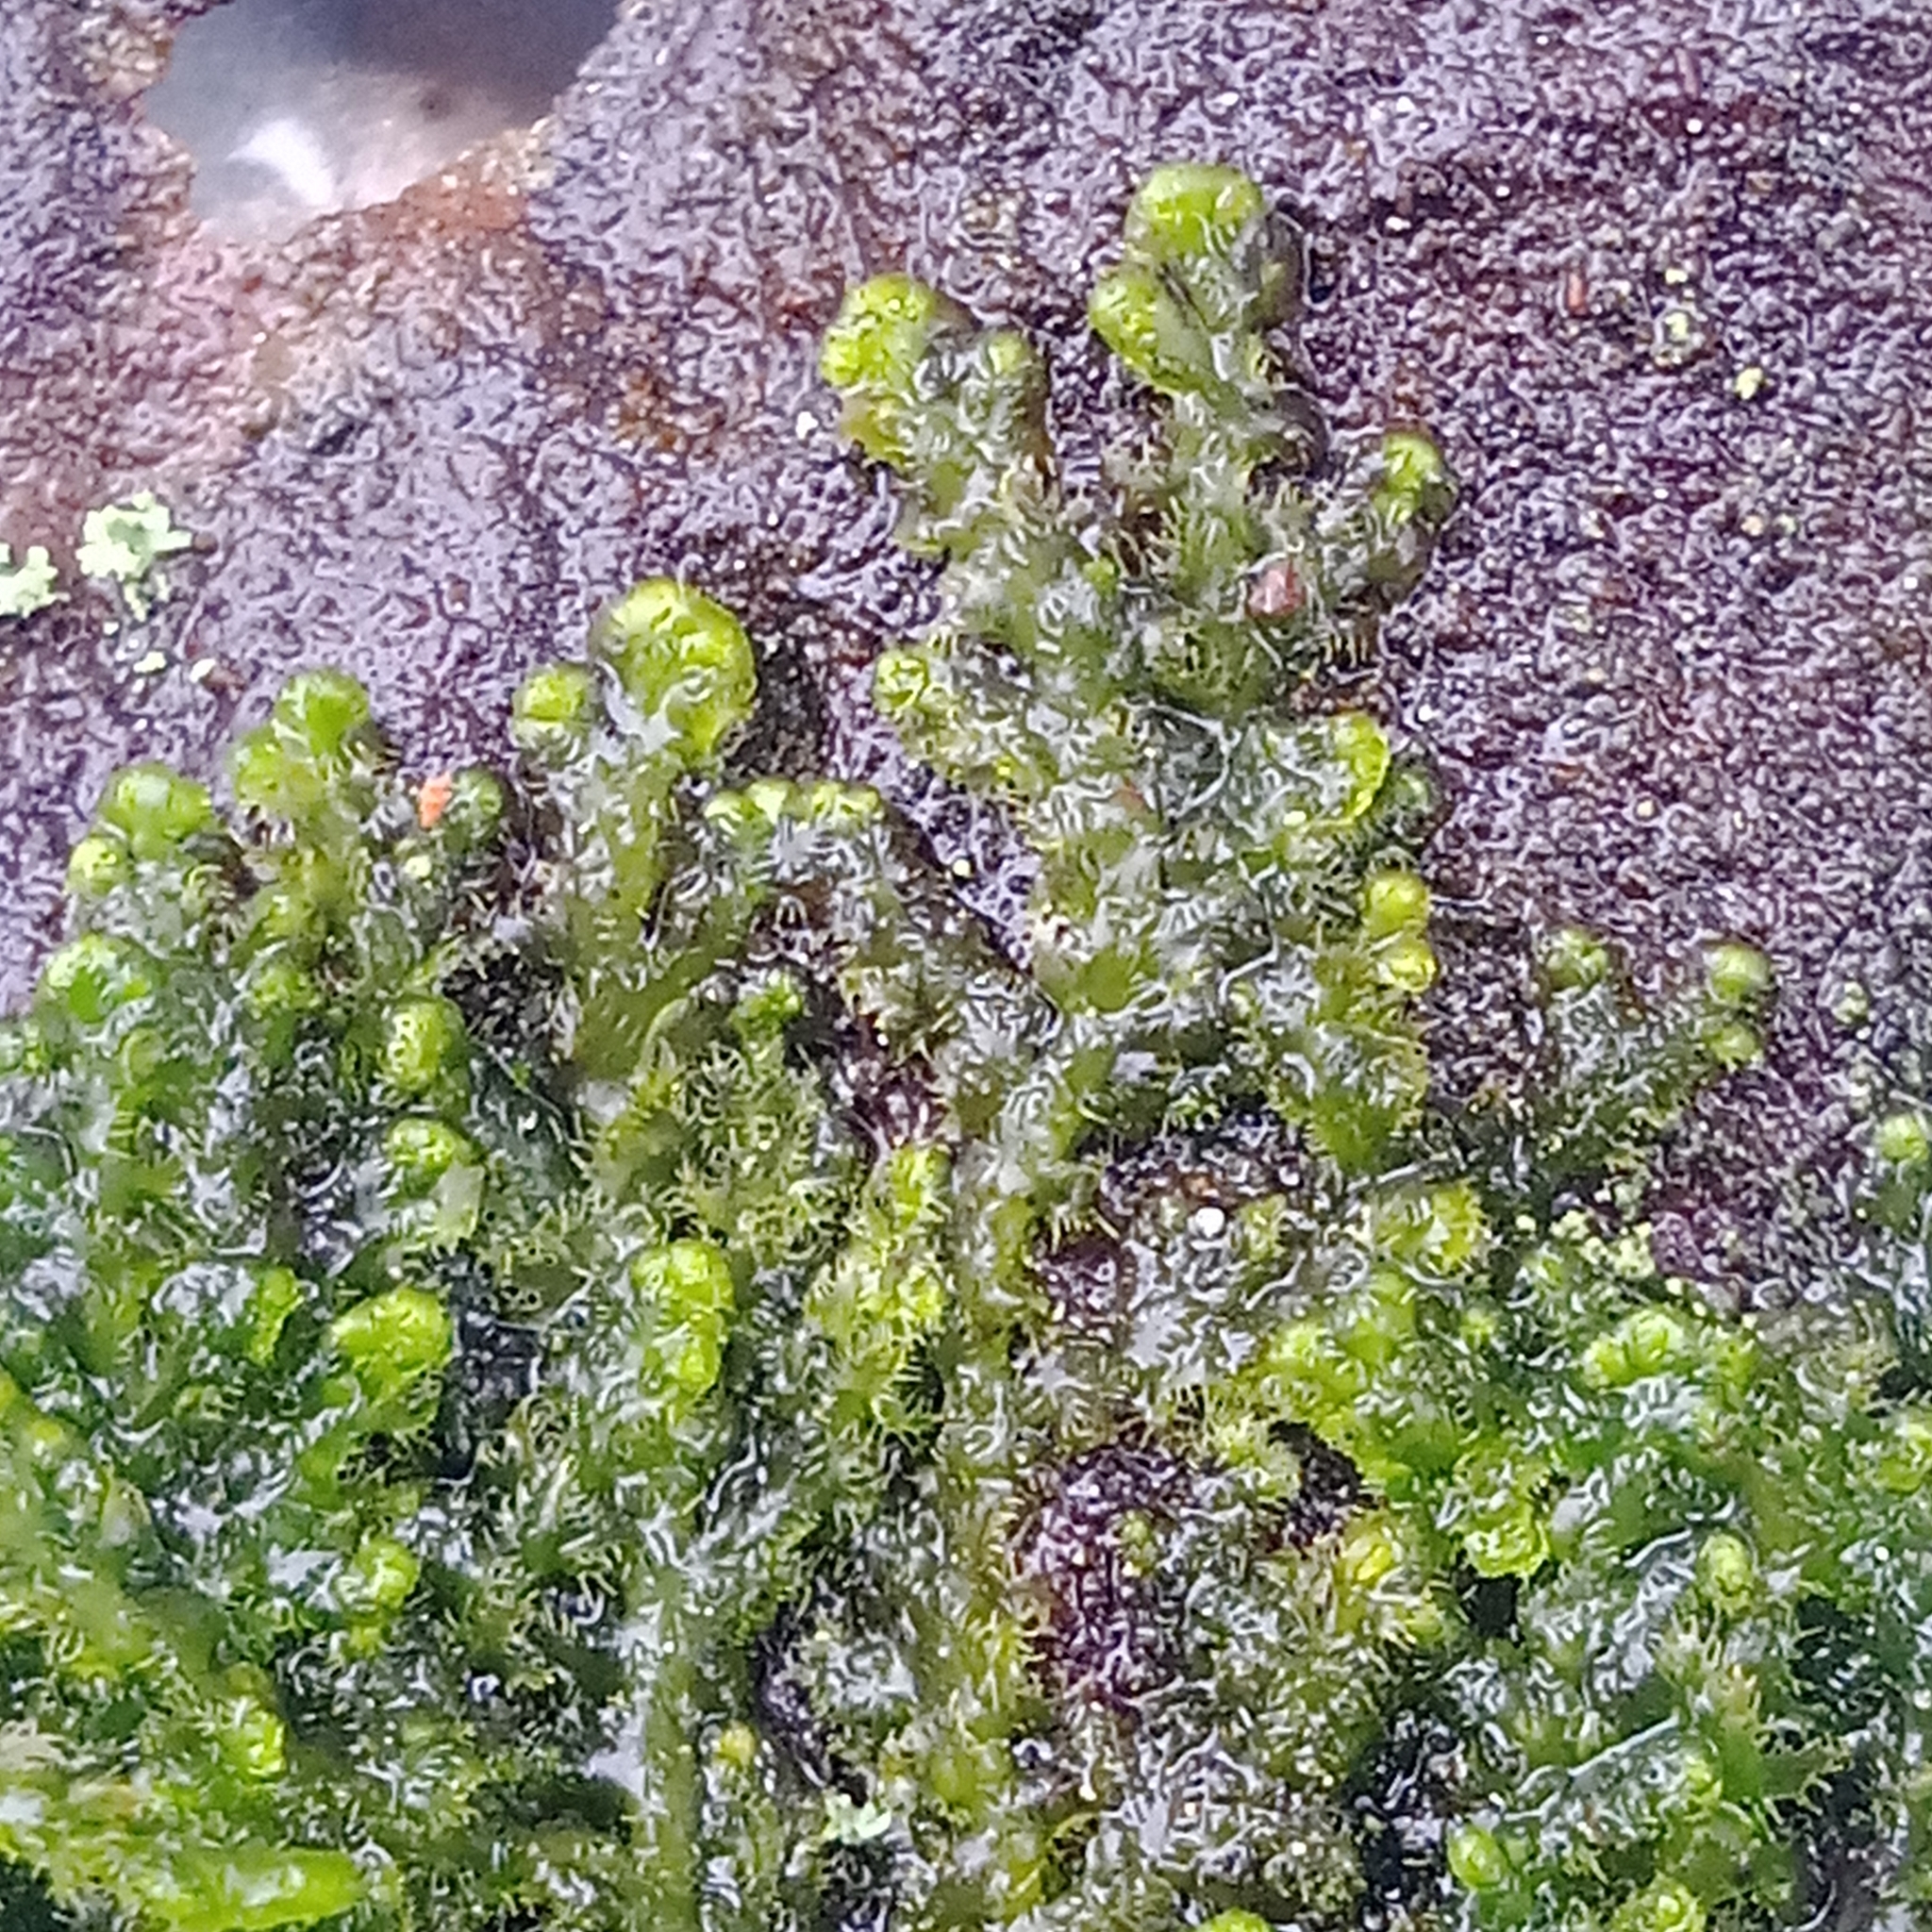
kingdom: Plantae
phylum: Marchantiophyta
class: Jungermanniopsida
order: Ptilidiales
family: Ptilidiaceae
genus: Ptilidium
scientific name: Ptilidium pulcherrimum
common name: Tree fringewort
